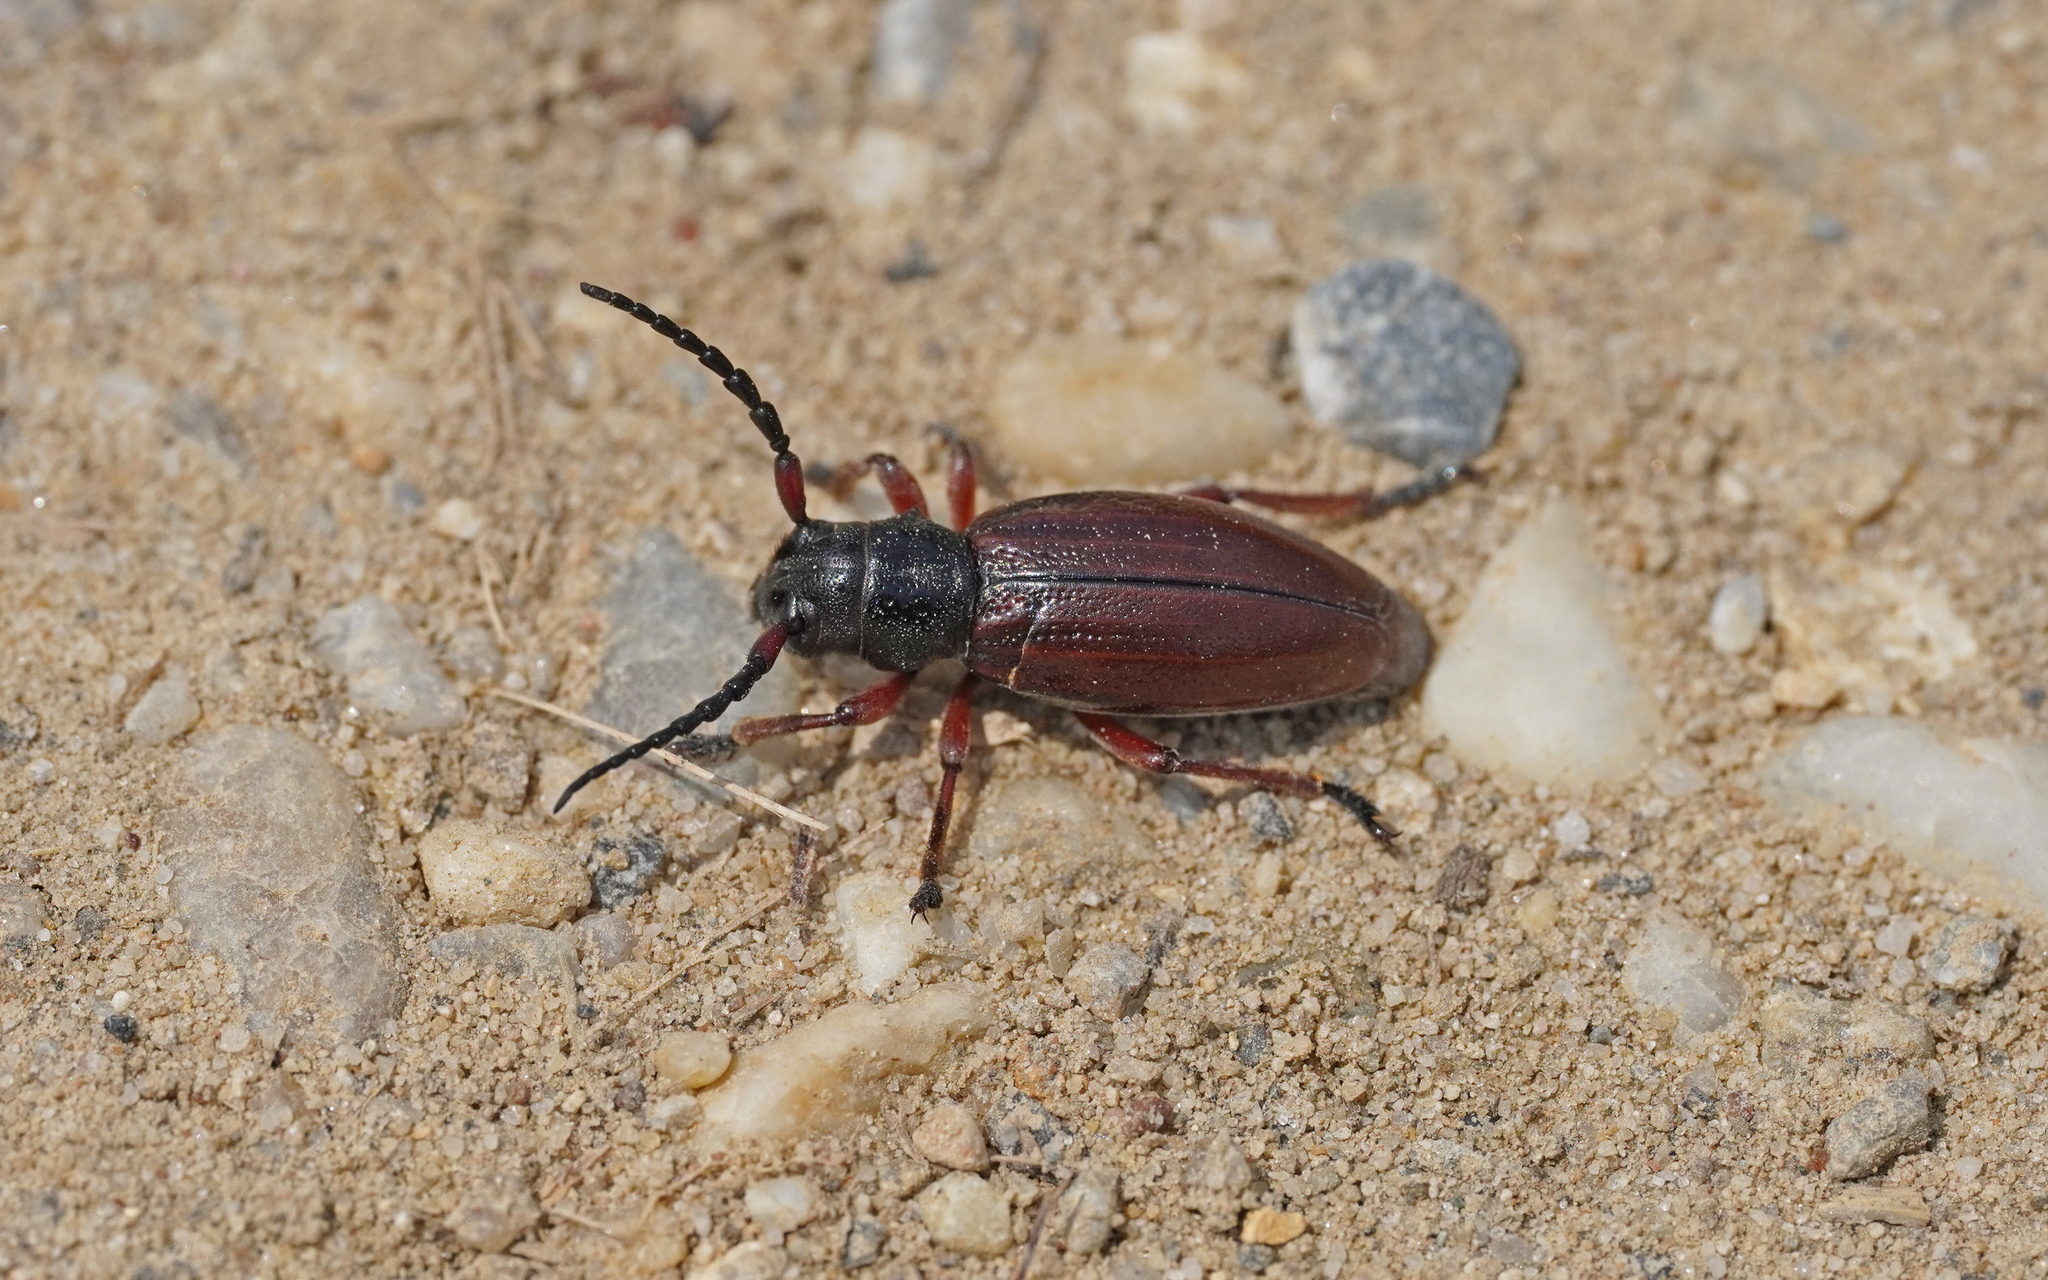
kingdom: Animalia
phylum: Arthropoda
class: Insecta
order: Coleoptera
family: Cerambycidae
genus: Dorcadion
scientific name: Dorcadion fulvum
